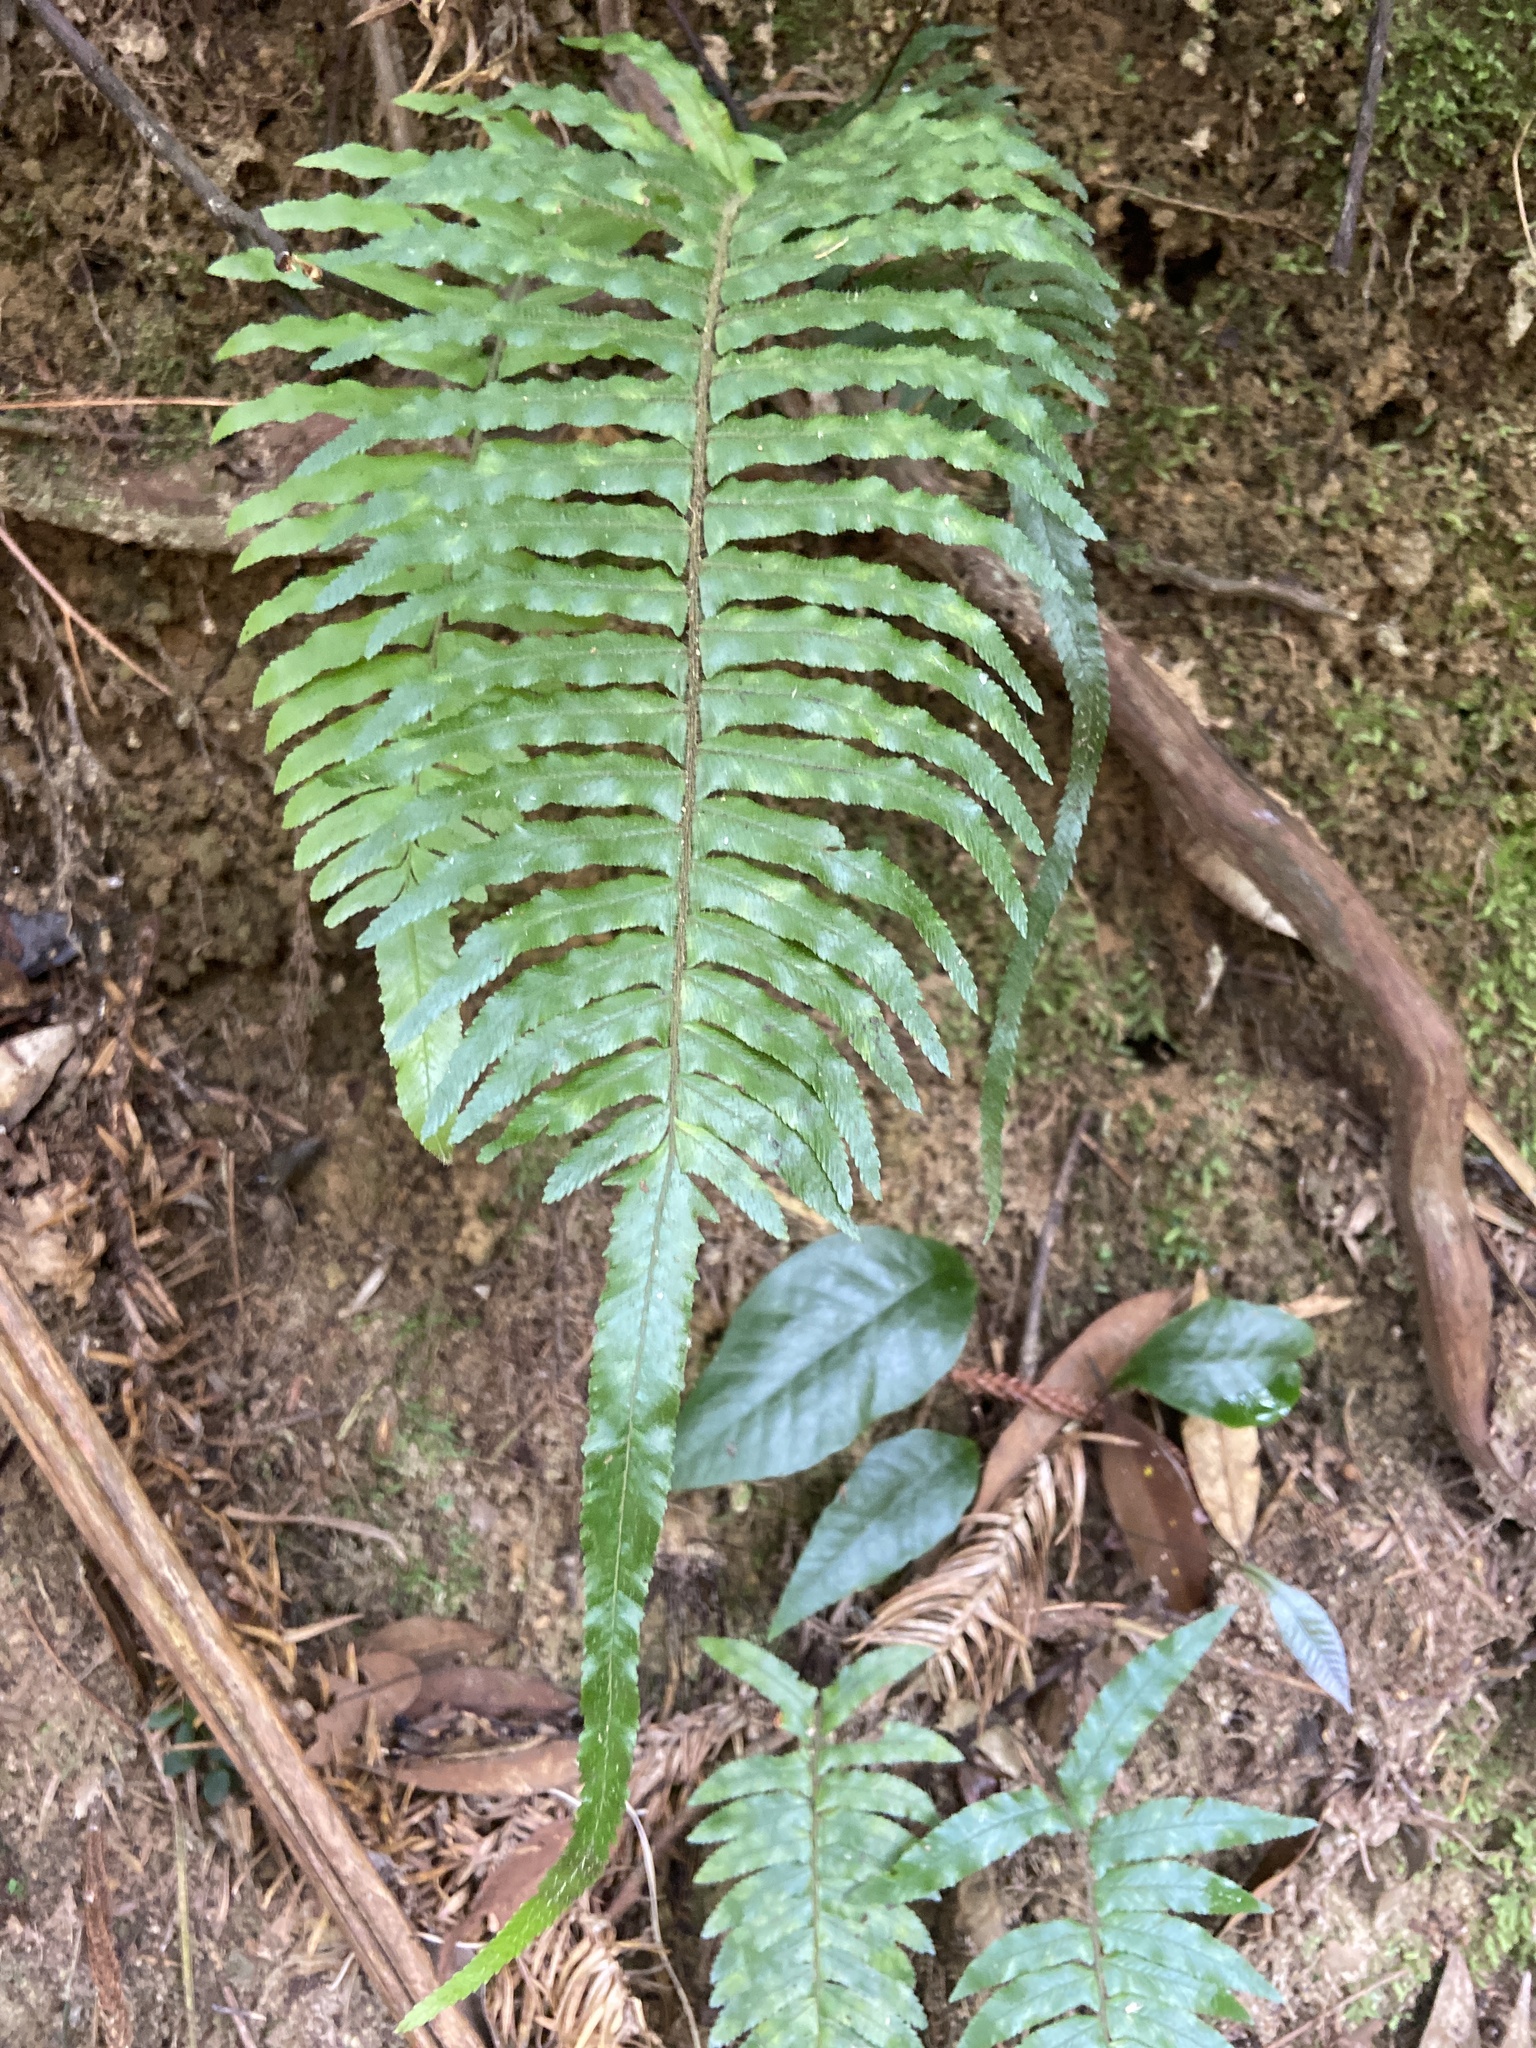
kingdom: Plantae
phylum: Tracheophyta
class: Polypodiopsida
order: Polypodiales
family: Dennstaedtiaceae
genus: Microlepia
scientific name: Microlepia hookeriana
